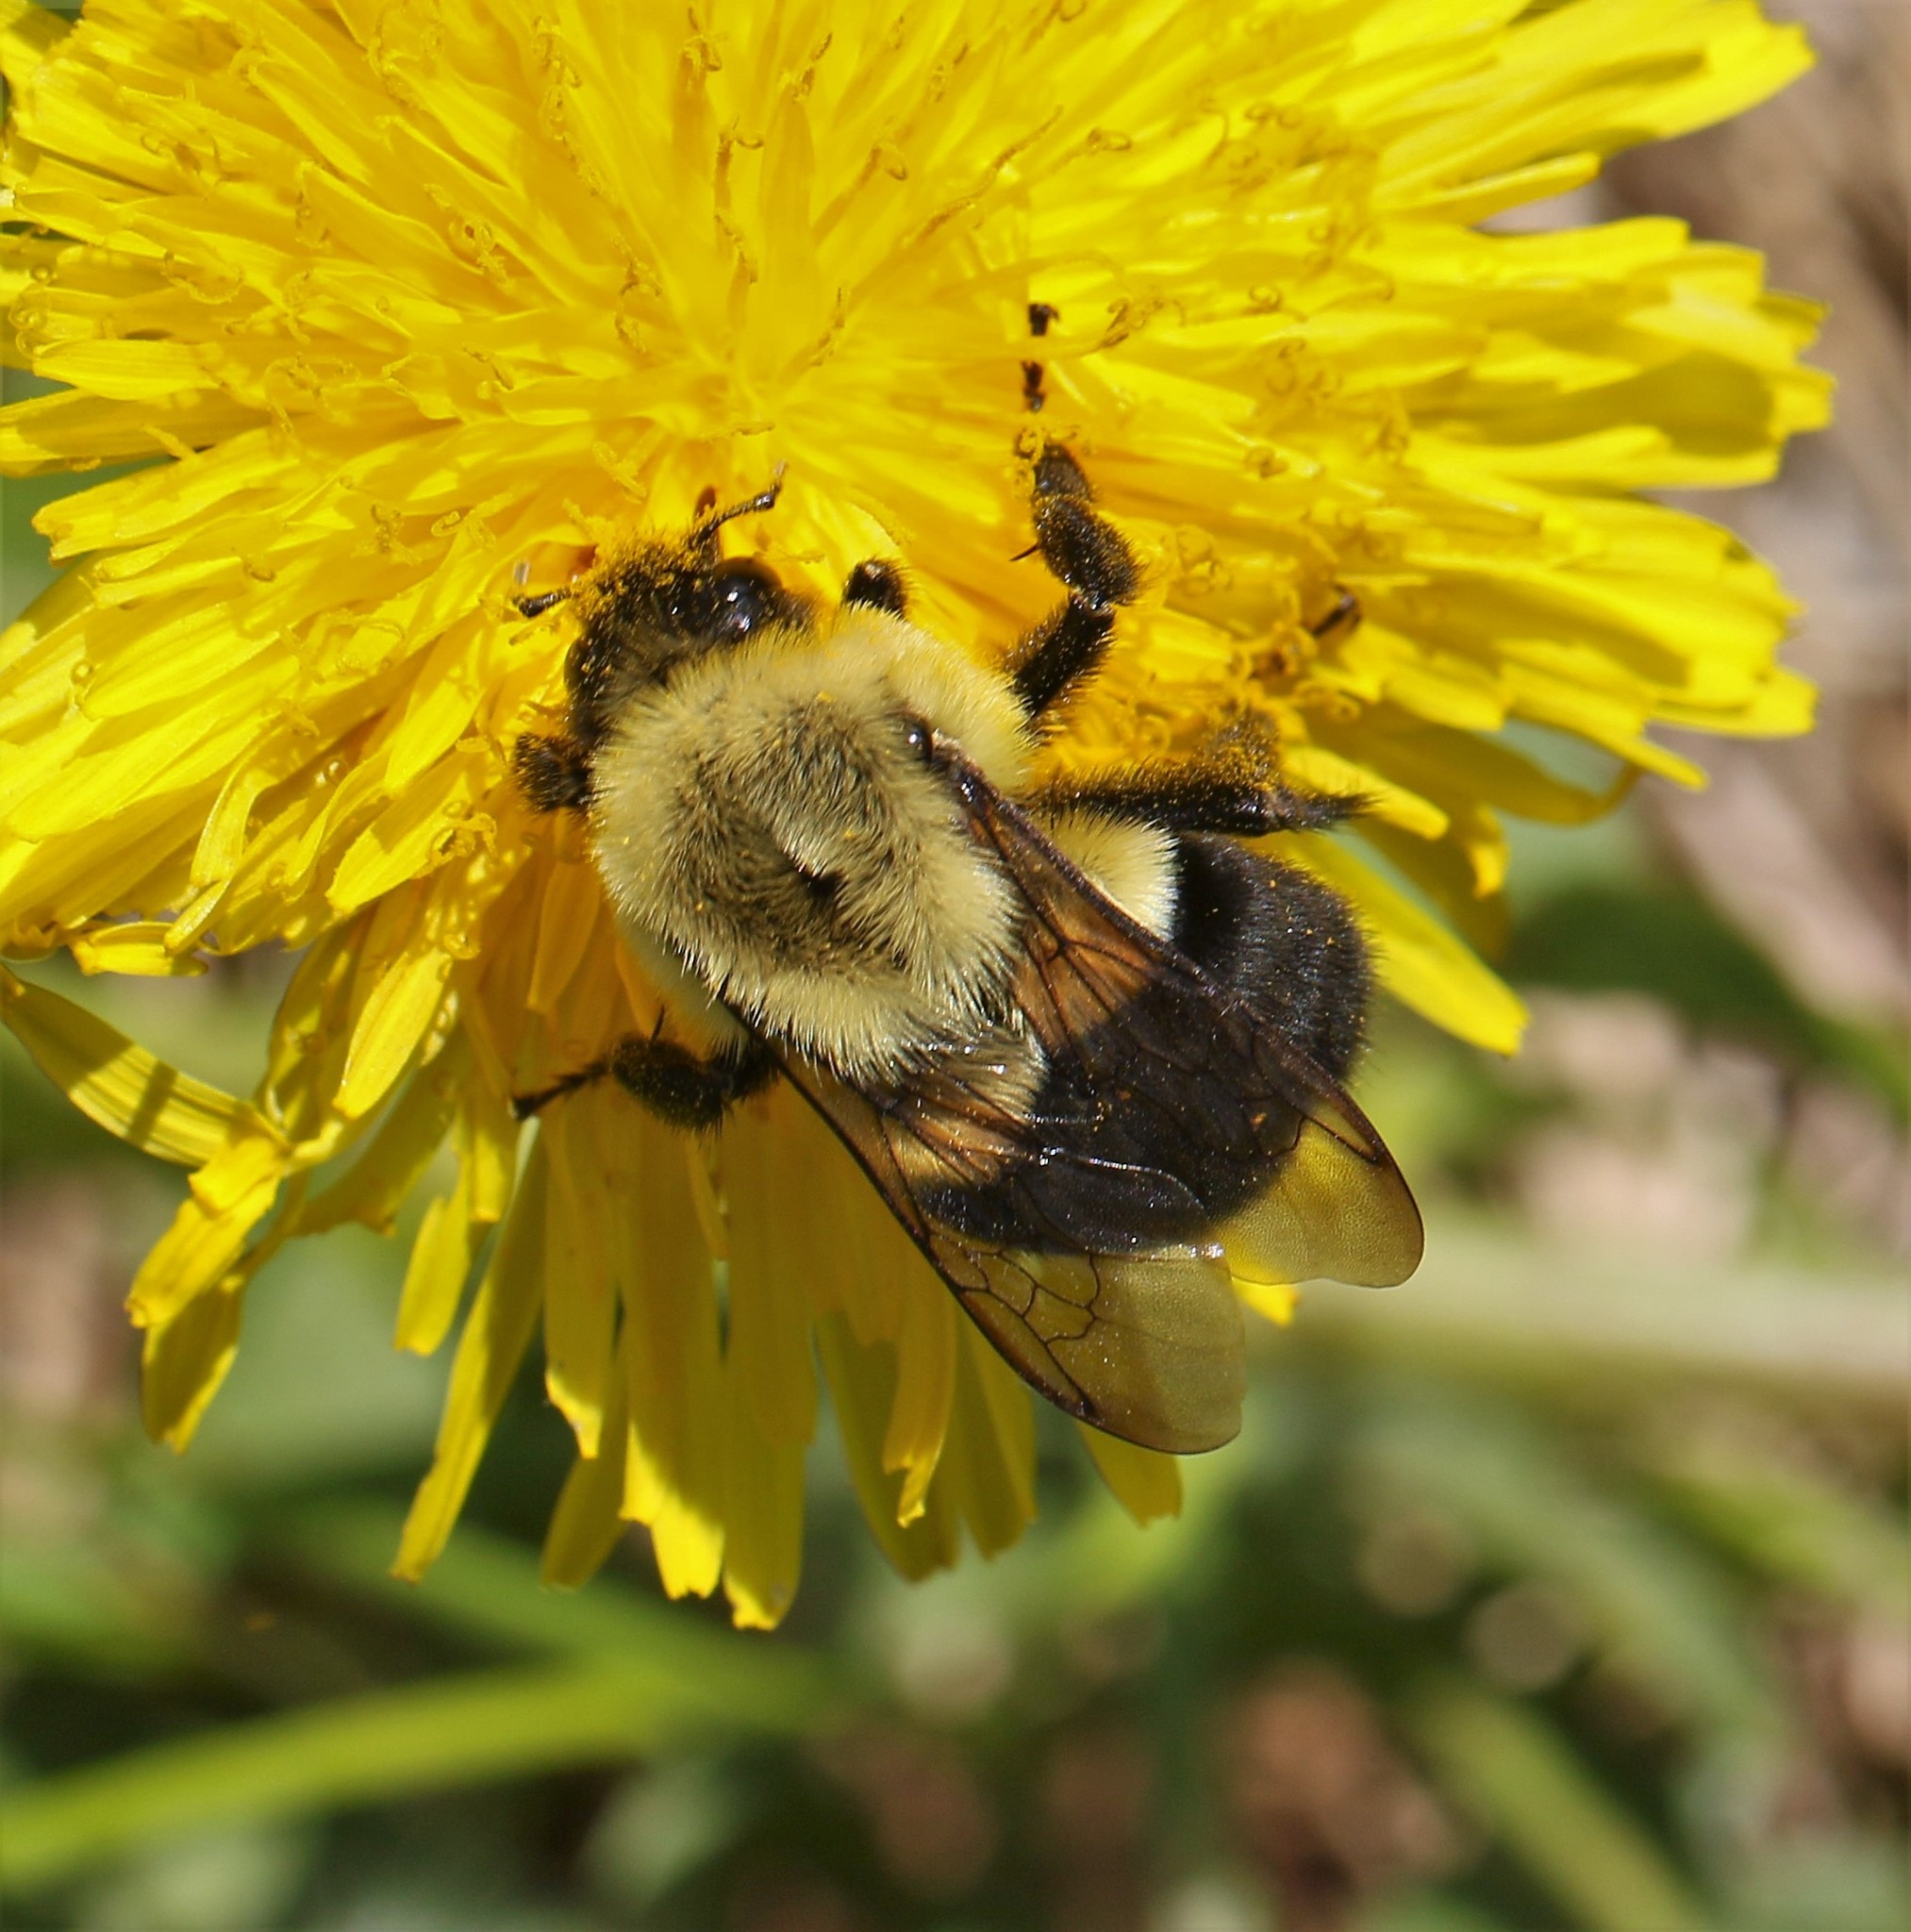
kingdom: Animalia
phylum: Arthropoda
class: Insecta
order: Hymenoptera
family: Apidae
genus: Bombus
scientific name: Bombus impatiens
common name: Common eastern bumble bee
